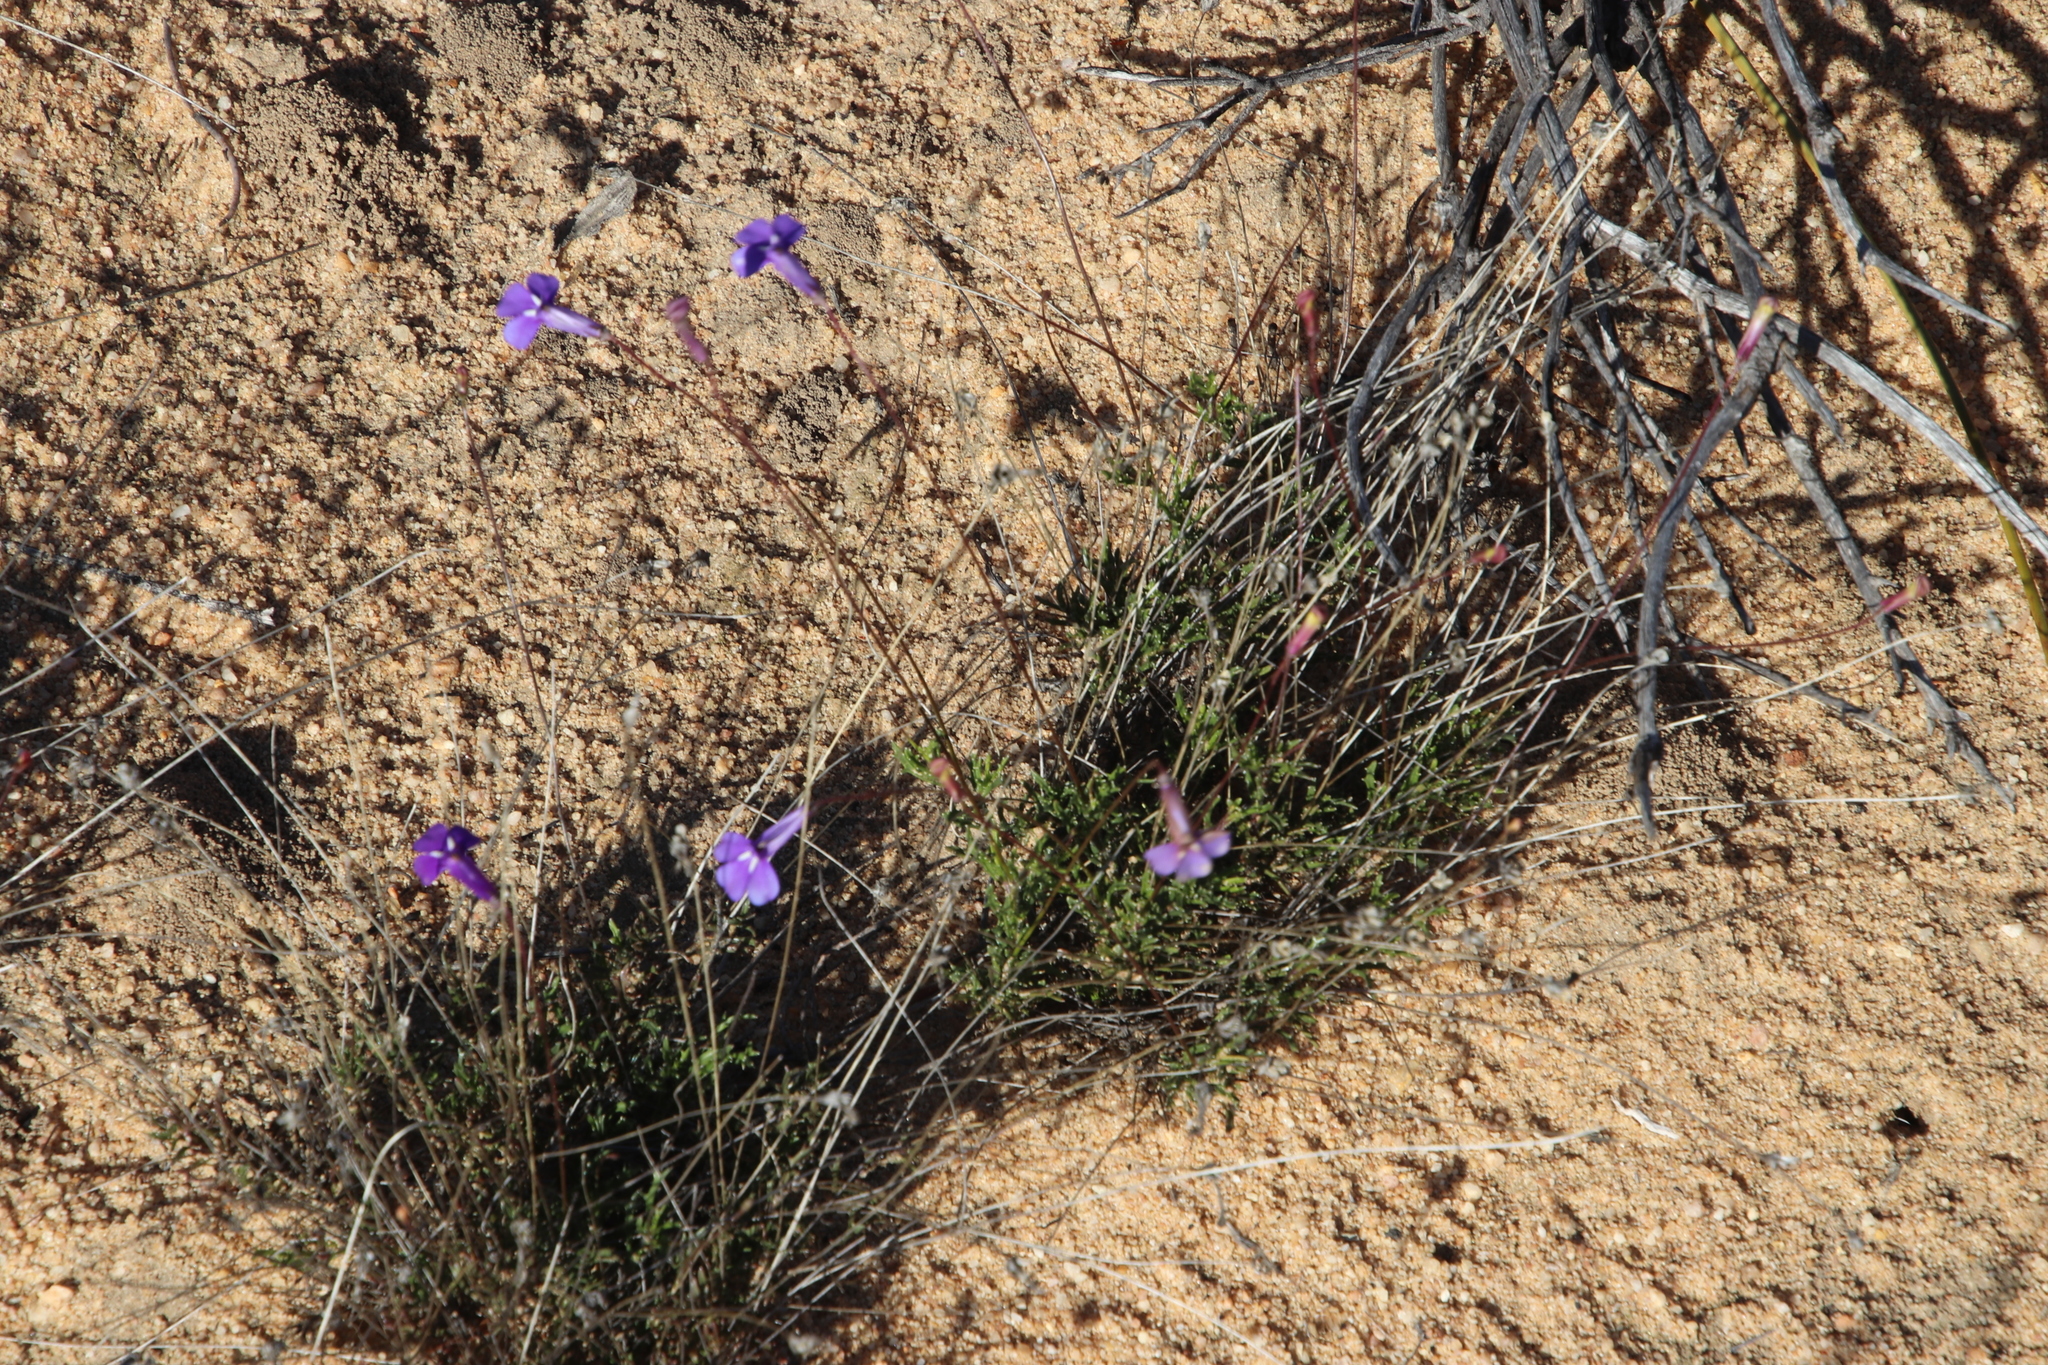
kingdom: Plantae
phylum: Tracheophyta
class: Magnoliopsida
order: Asterales
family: Campanulaceae
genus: Lobelia
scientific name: Lobelia coronopifolia
